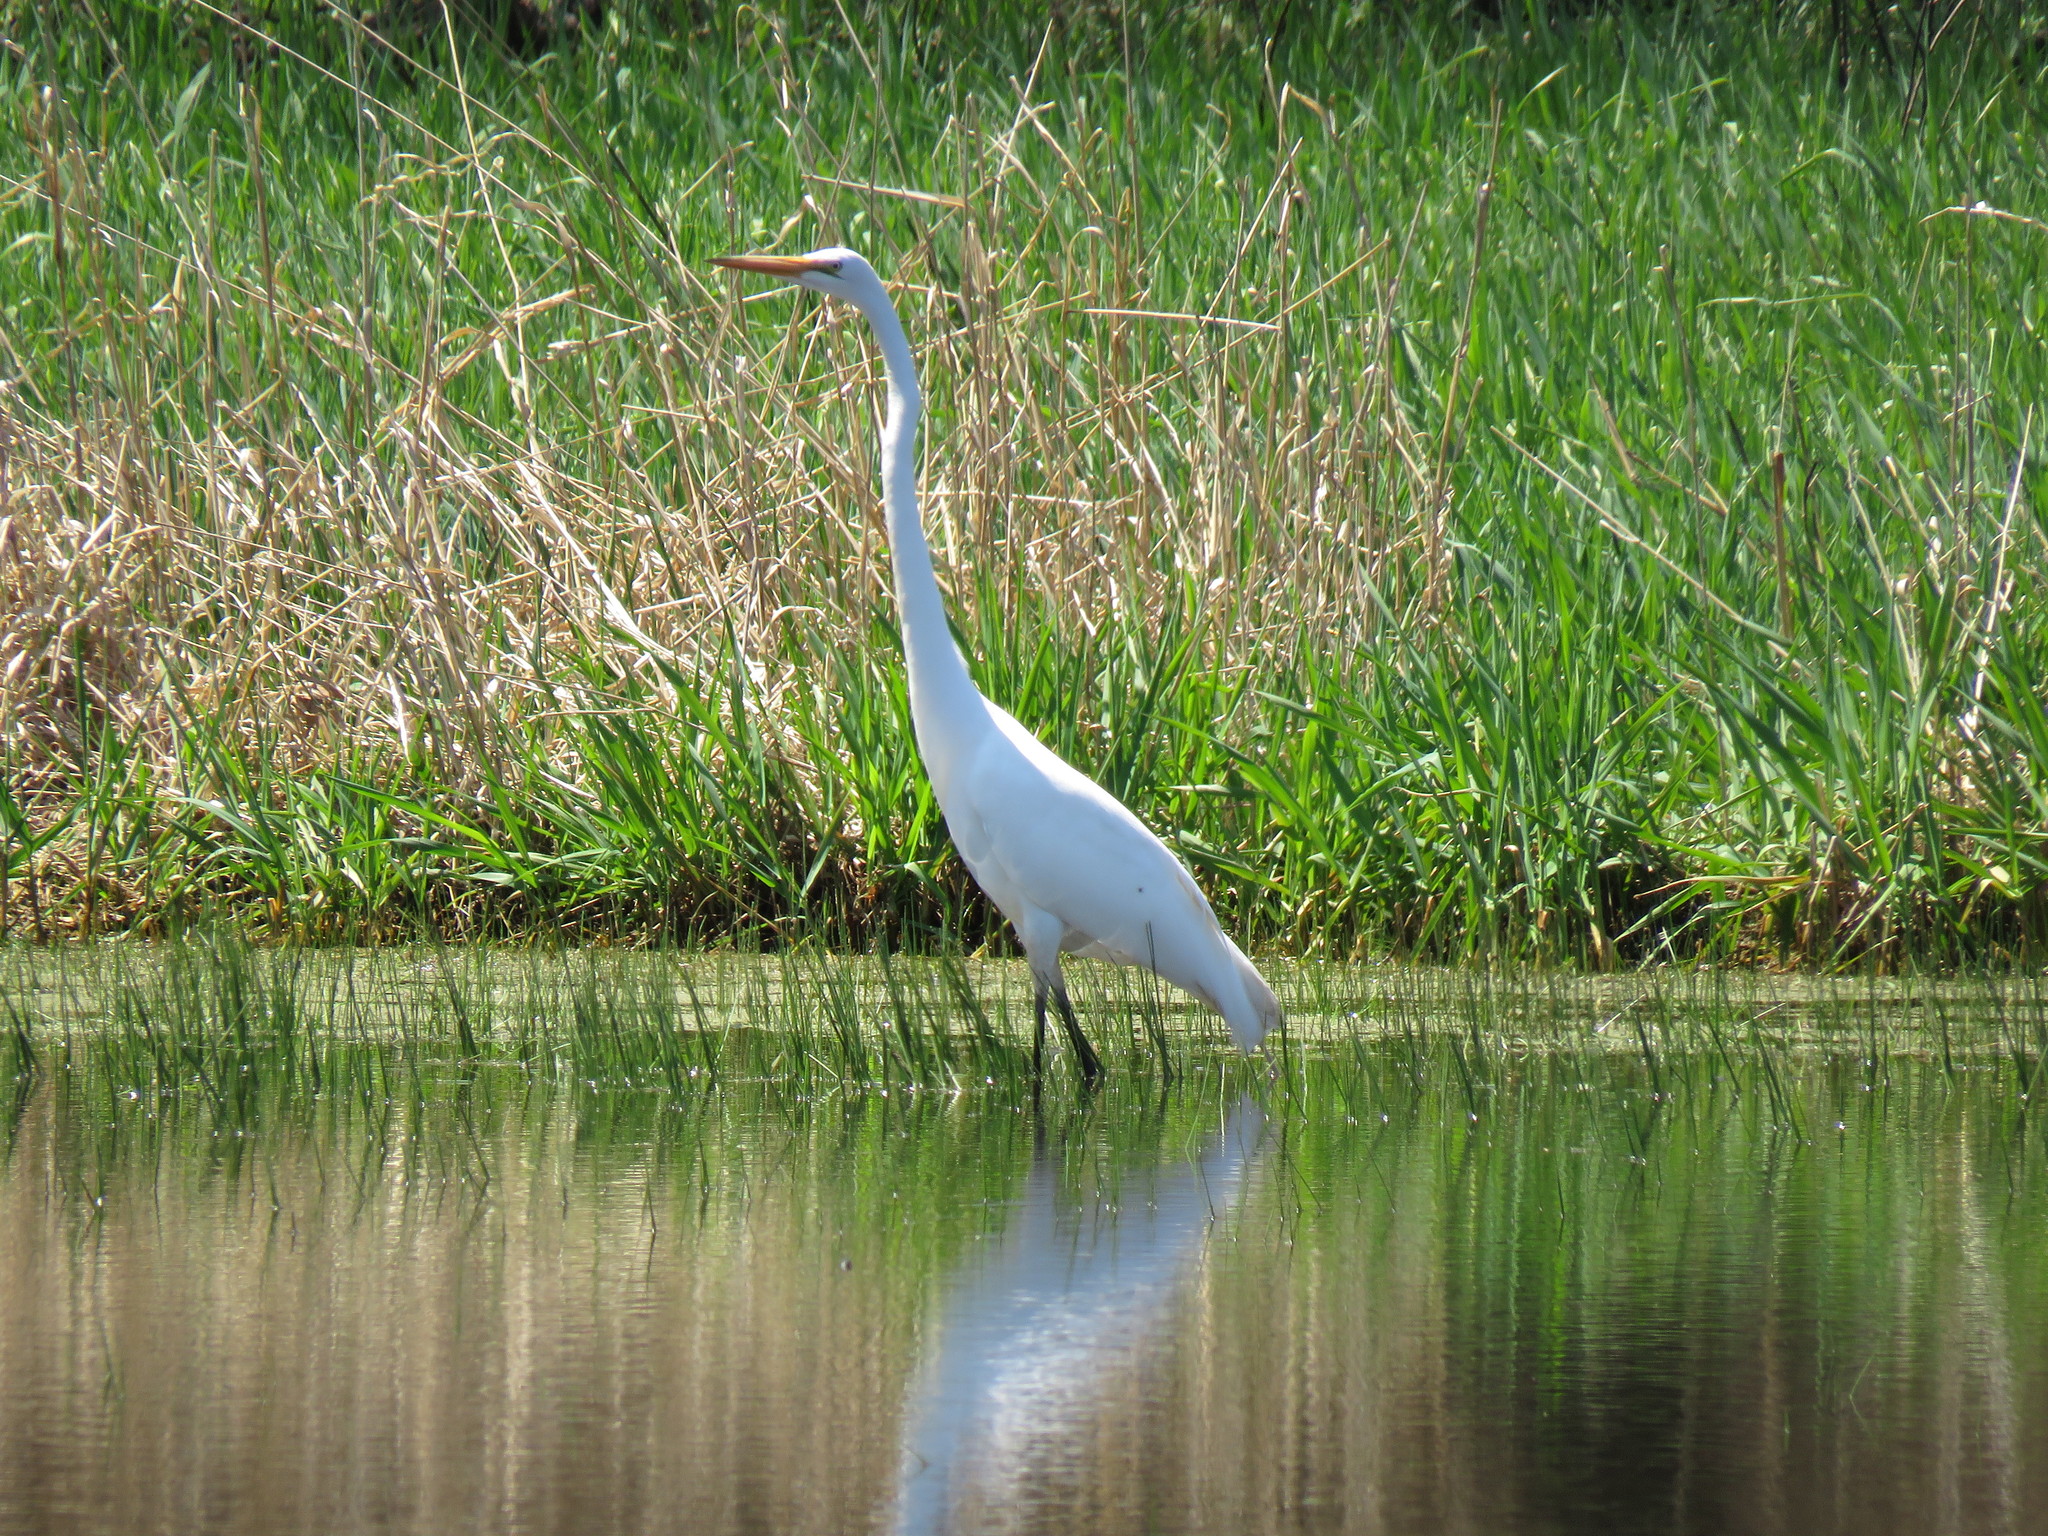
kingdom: Animalia
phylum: Chordata
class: Aves
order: Pelecaniformes
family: Ardeidae
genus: Ardea
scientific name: Ardea alba
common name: Great egret
